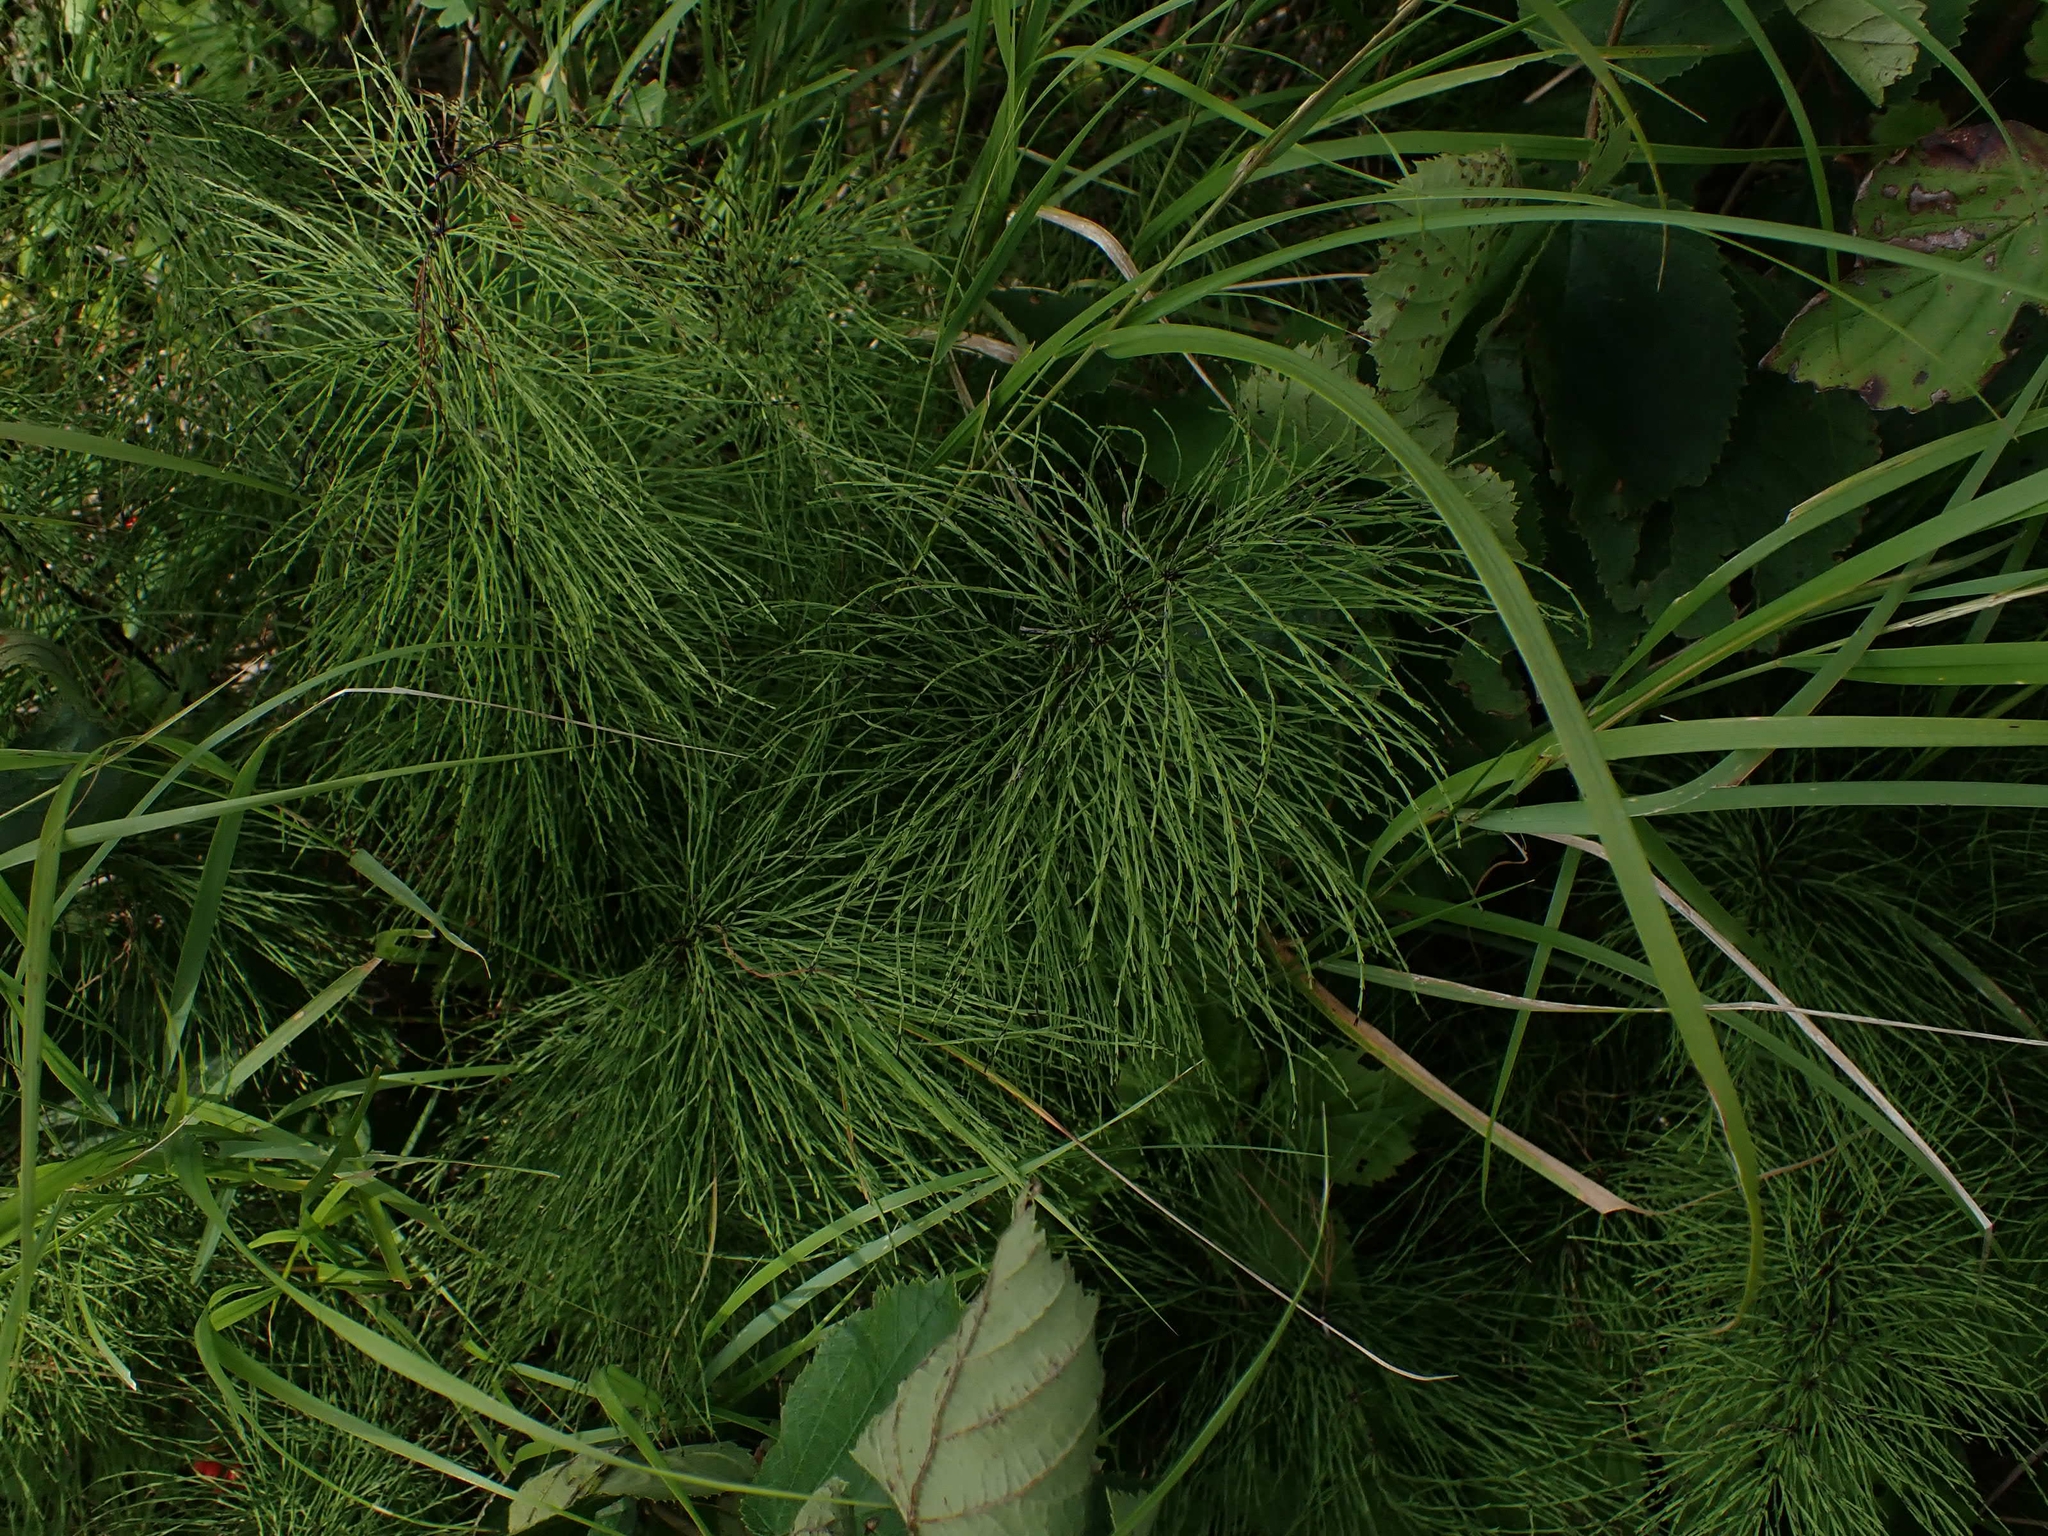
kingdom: Plantae
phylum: Tracheophyta
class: Polypodiopsida
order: Equisetales
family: Equisetaceae
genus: Equisetum
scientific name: Equisetum sylvaticum
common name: Wood horsetail
